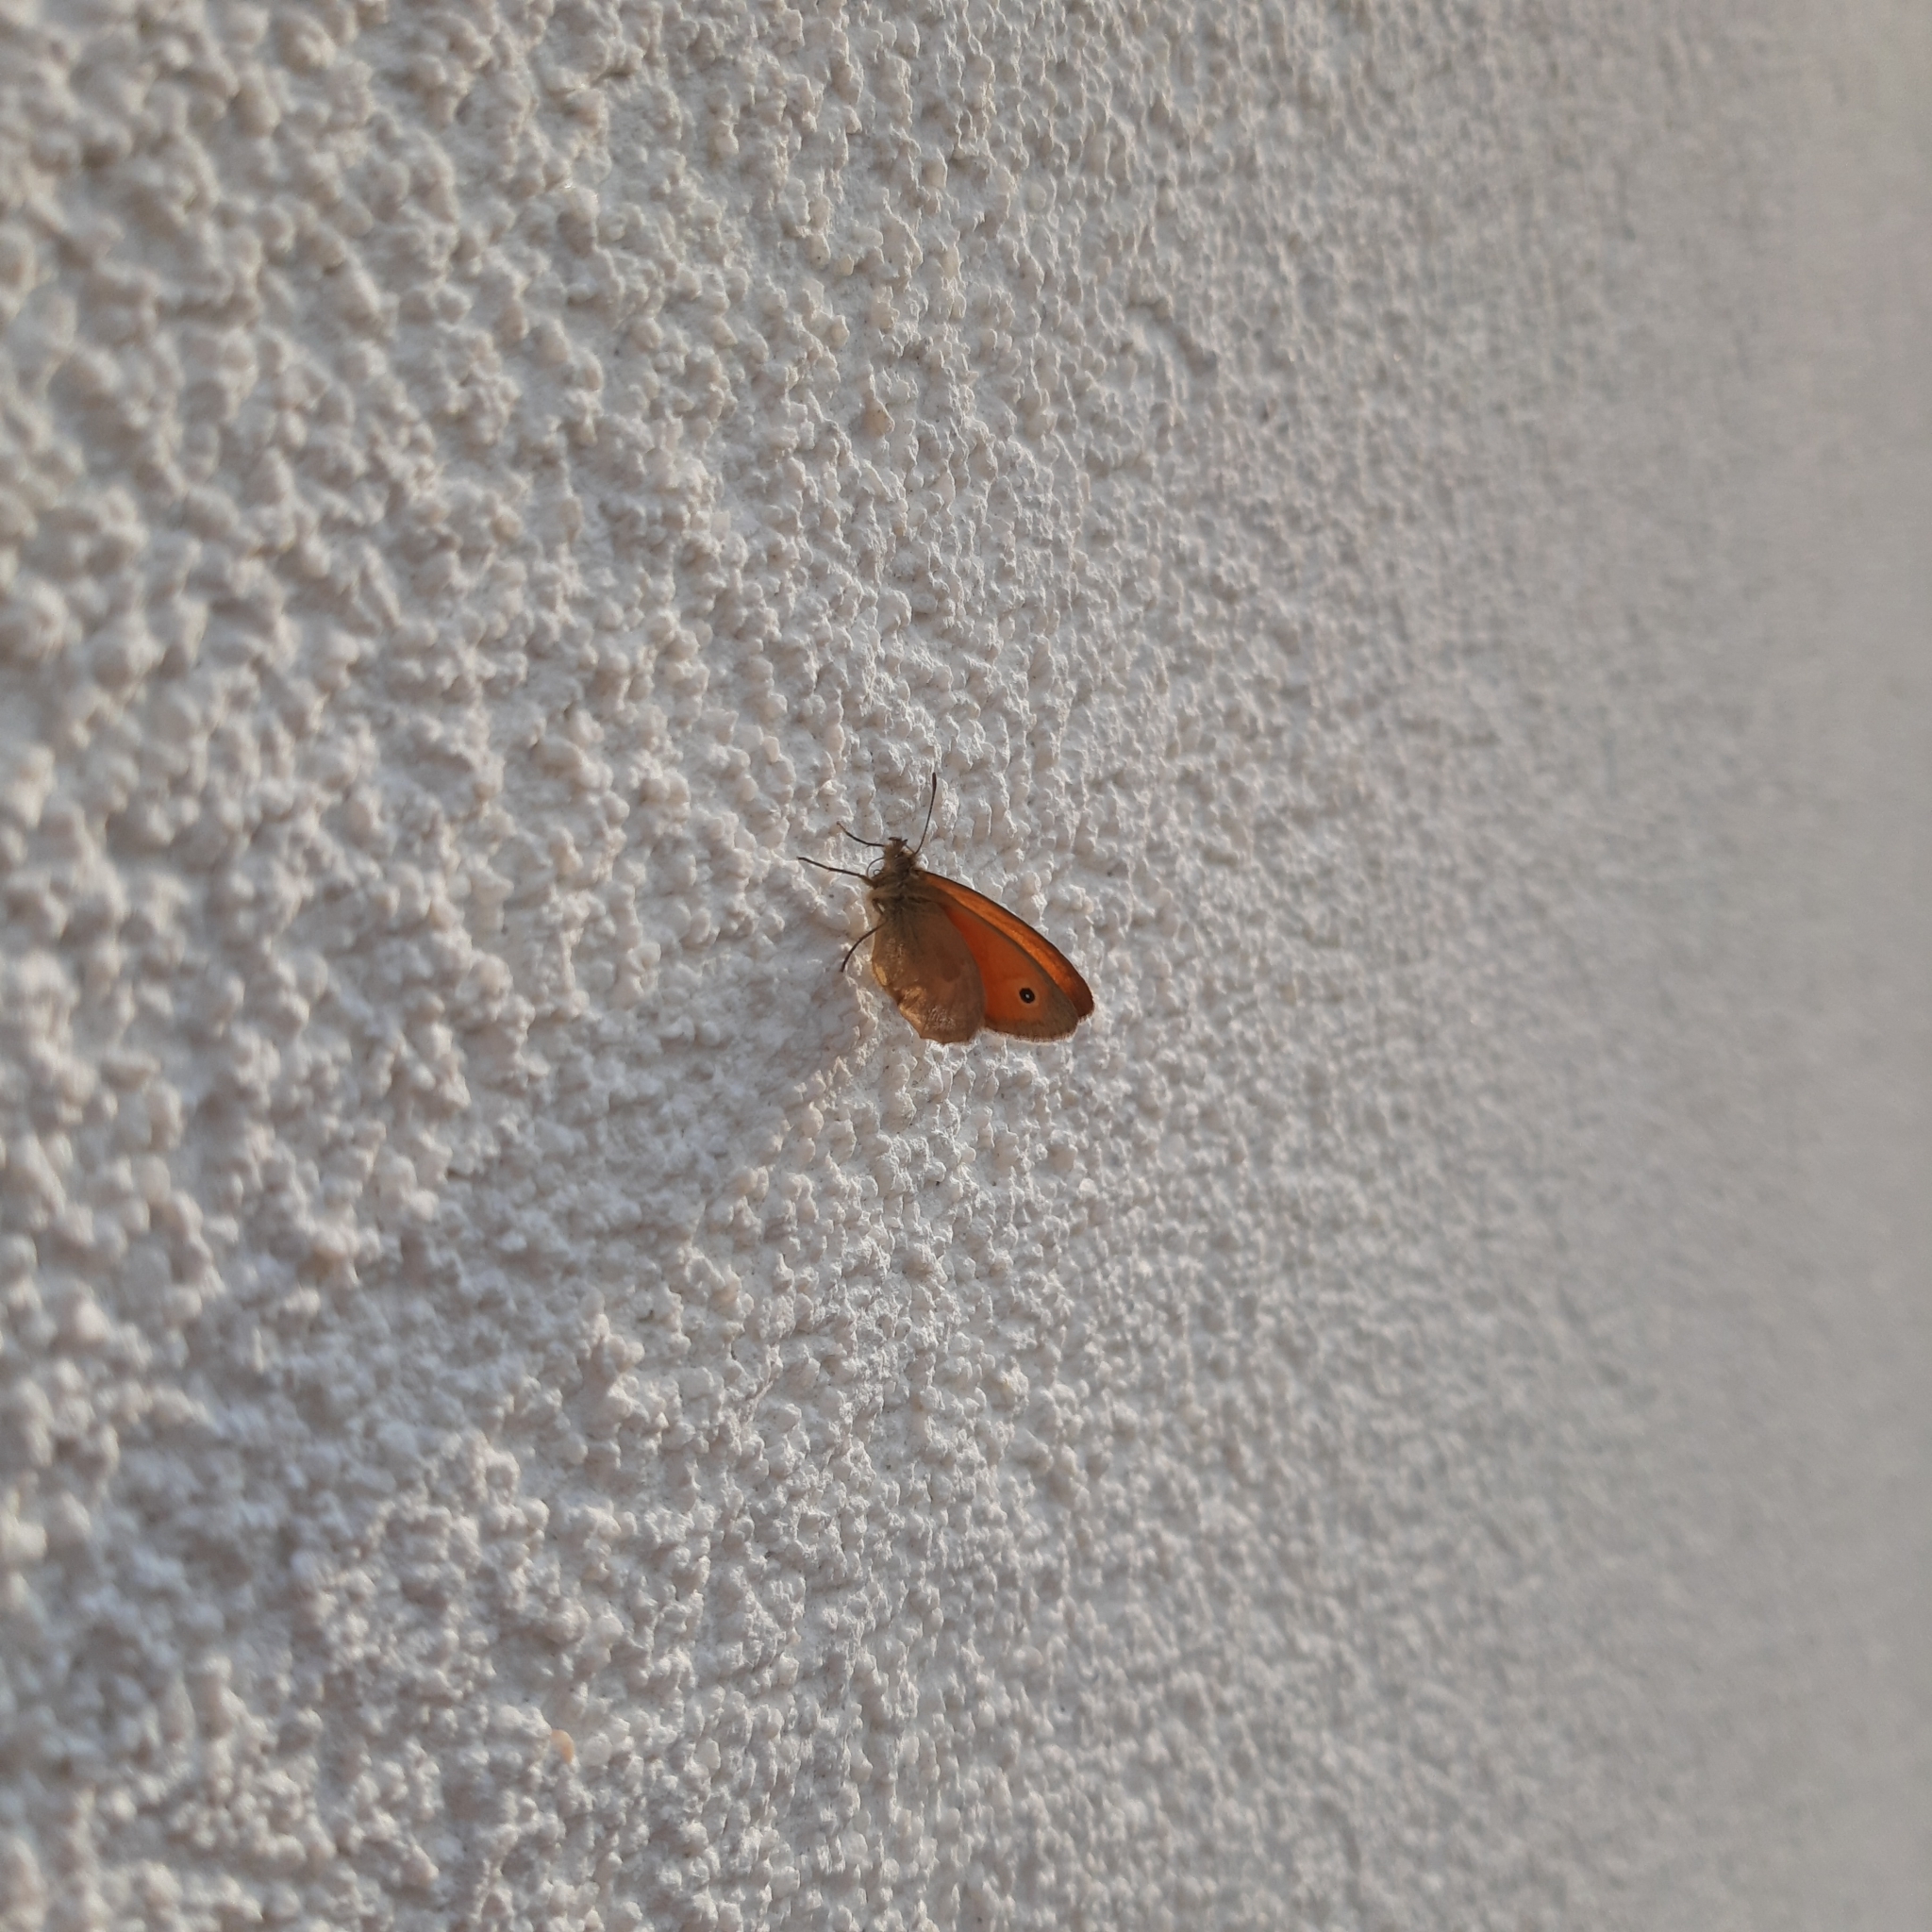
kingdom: Animalia
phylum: Arthropoda
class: Insecta
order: Lepidoptera
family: Nymphalidae
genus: Coenonympha
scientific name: Coenonympha pamphilus
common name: Small heath
